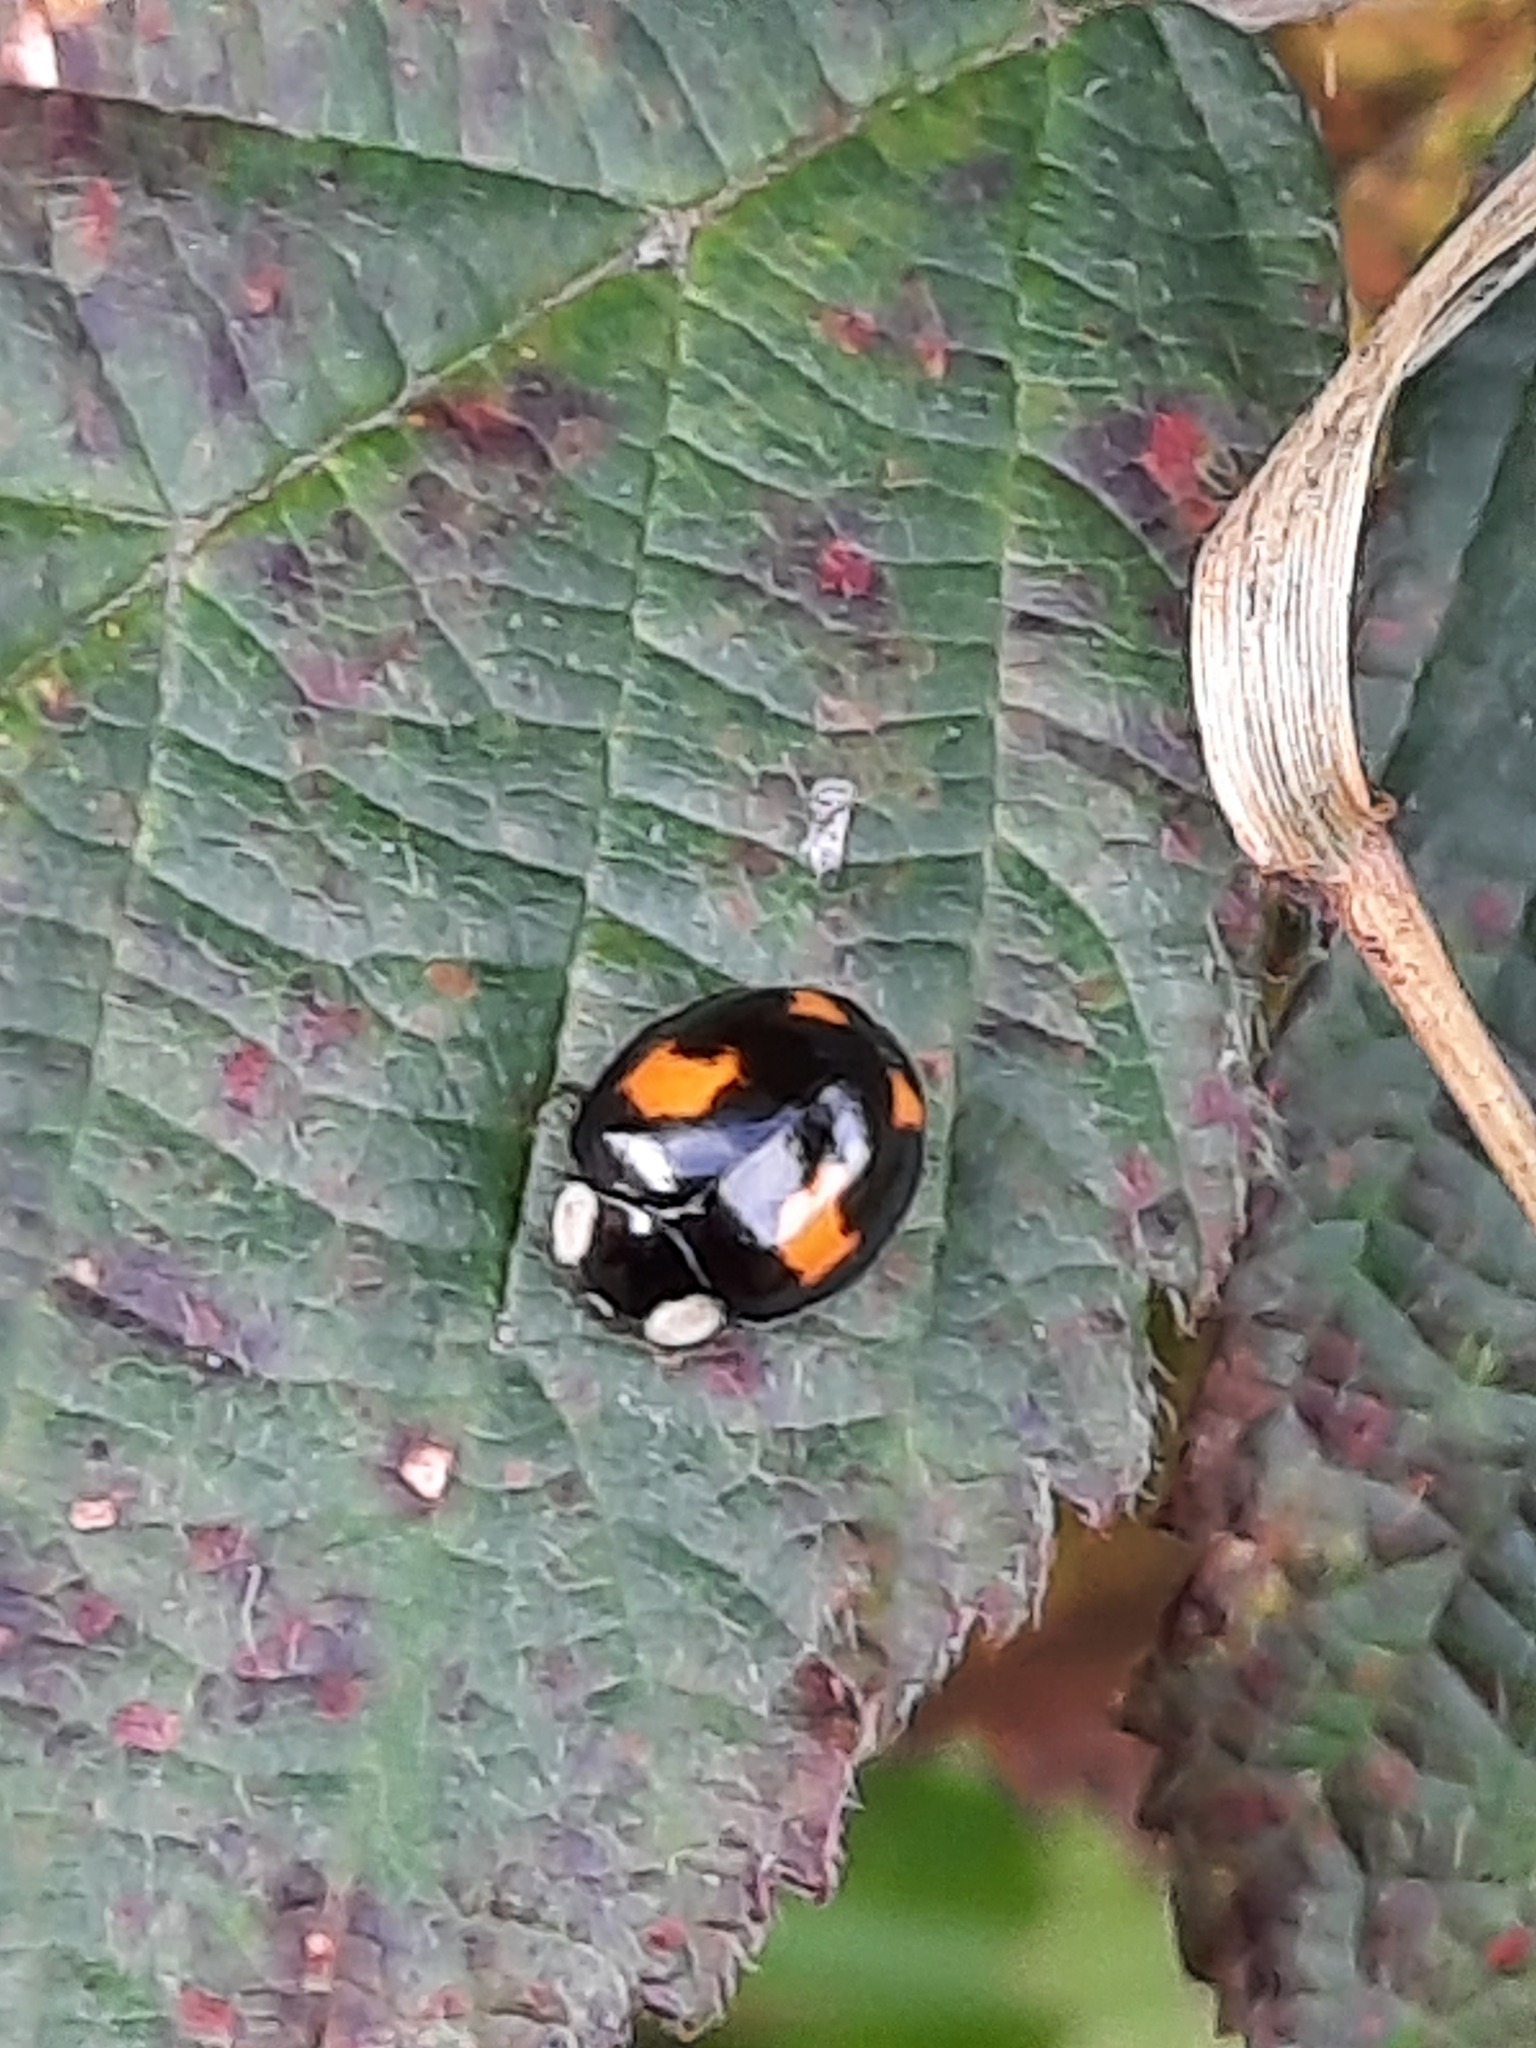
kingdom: Animalia
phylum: Arthropoda
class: Insecta
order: Coleoptera
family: Coccinellidae
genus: Harmonia
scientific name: Harmonia axyridis
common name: Harlequin ladybird
